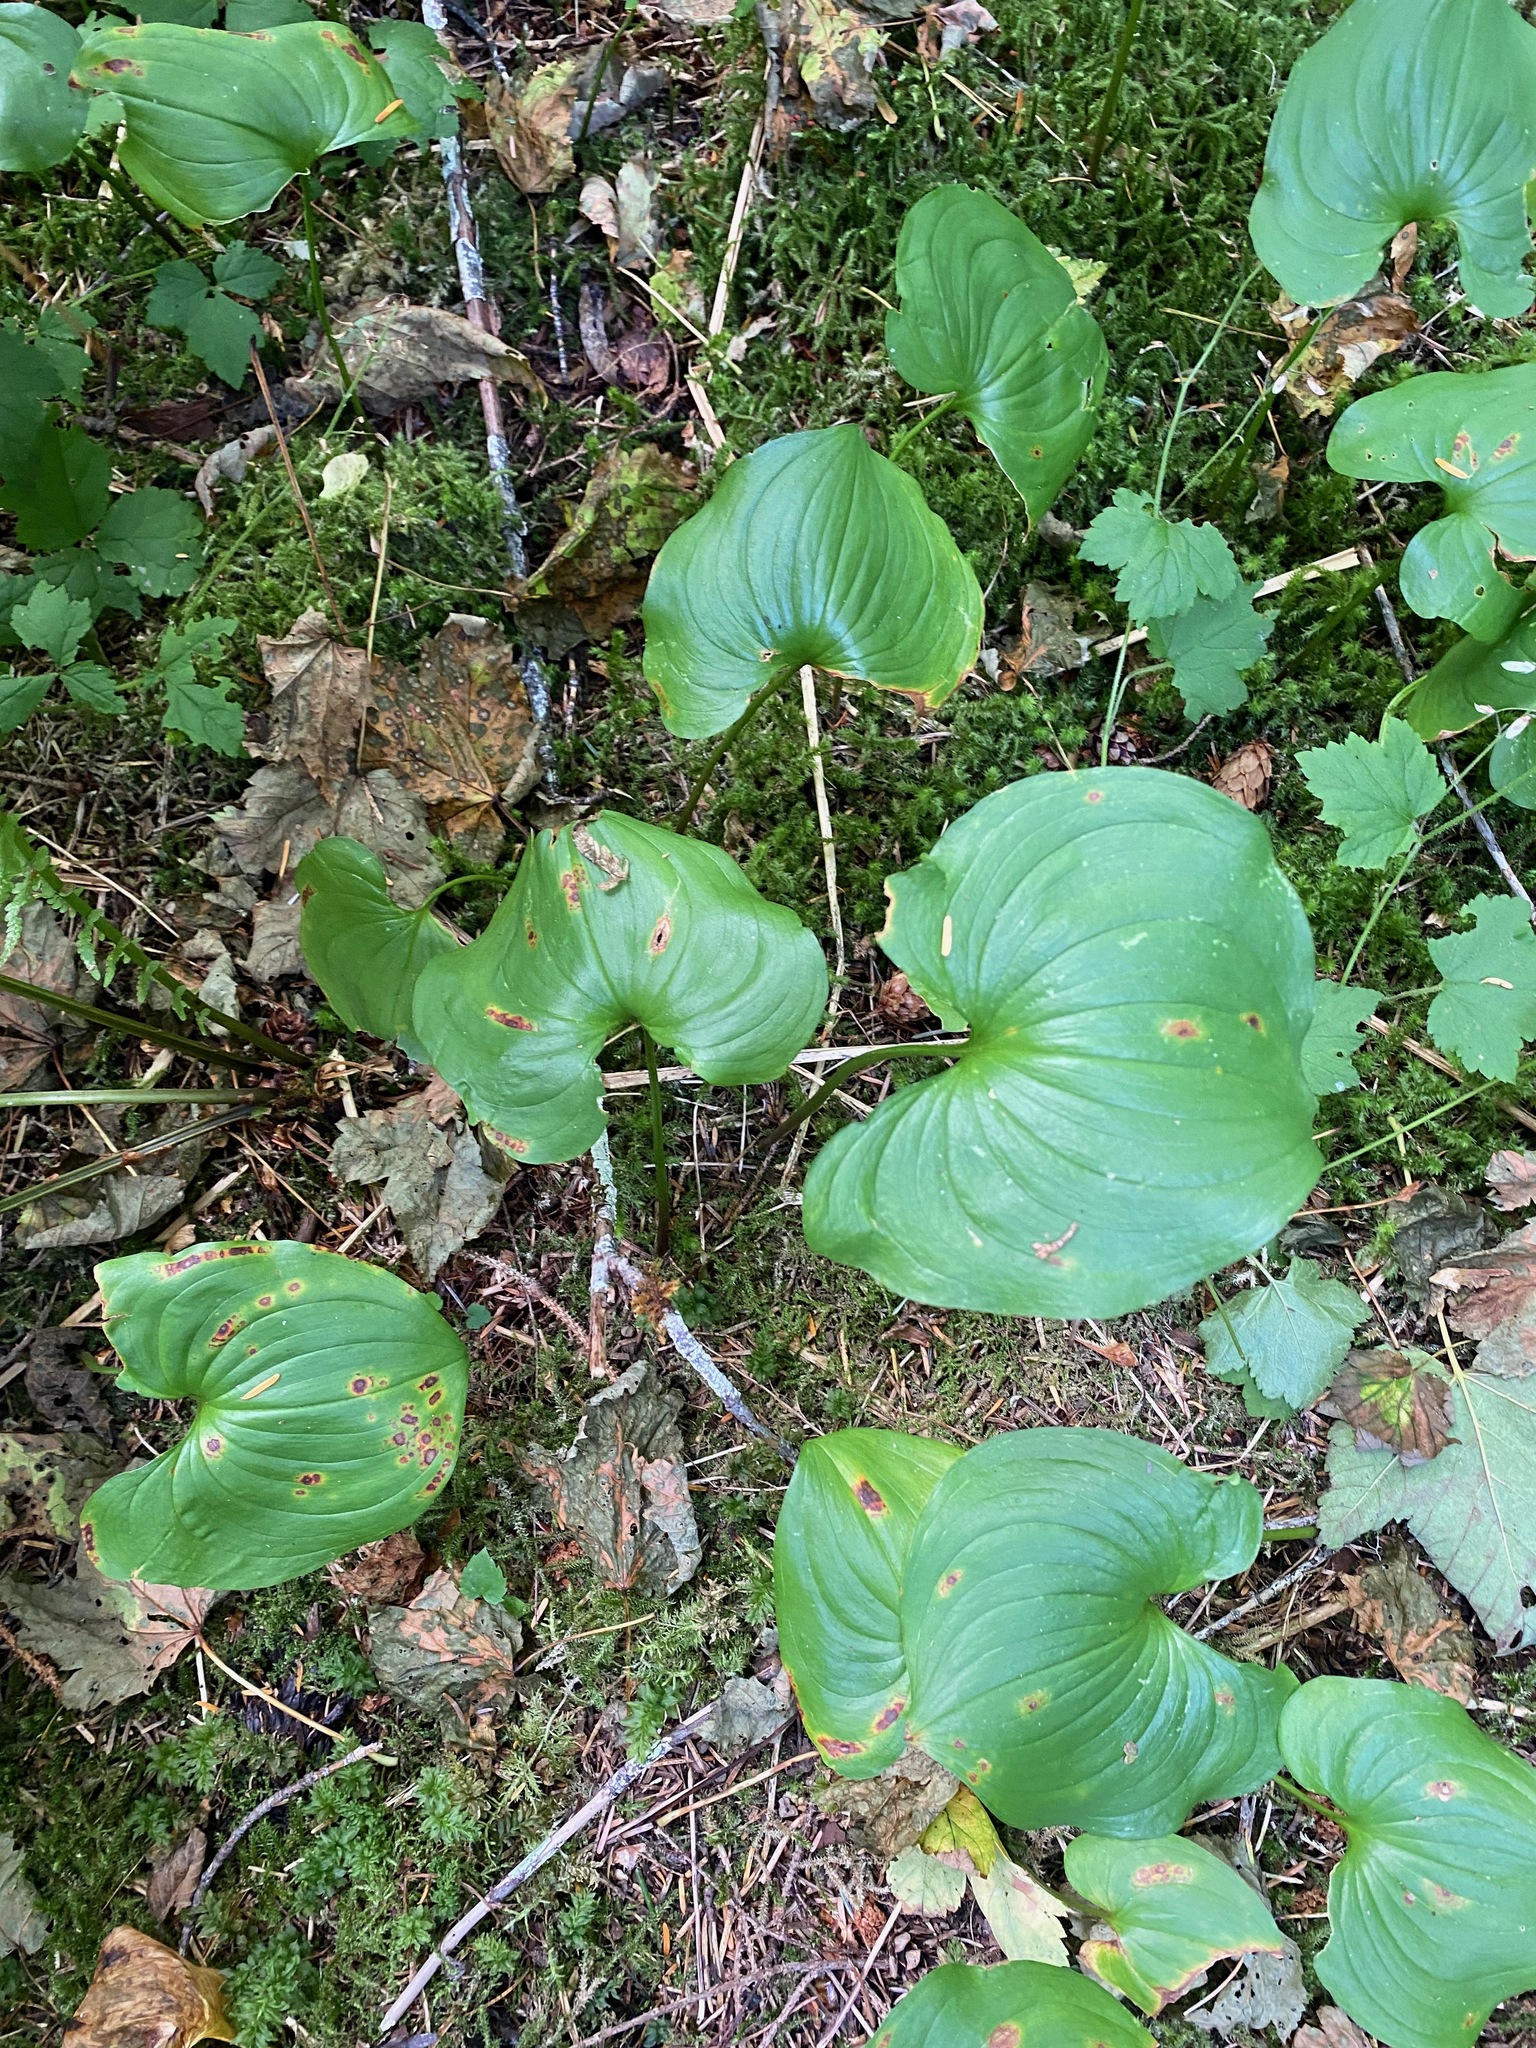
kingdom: Plantae
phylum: Tracheophyta
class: Liliopsida
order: Asparagales
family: Asparagaceae
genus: Maianthemum
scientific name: Maianthemum dilatatum
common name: False lily-of-the-valley
